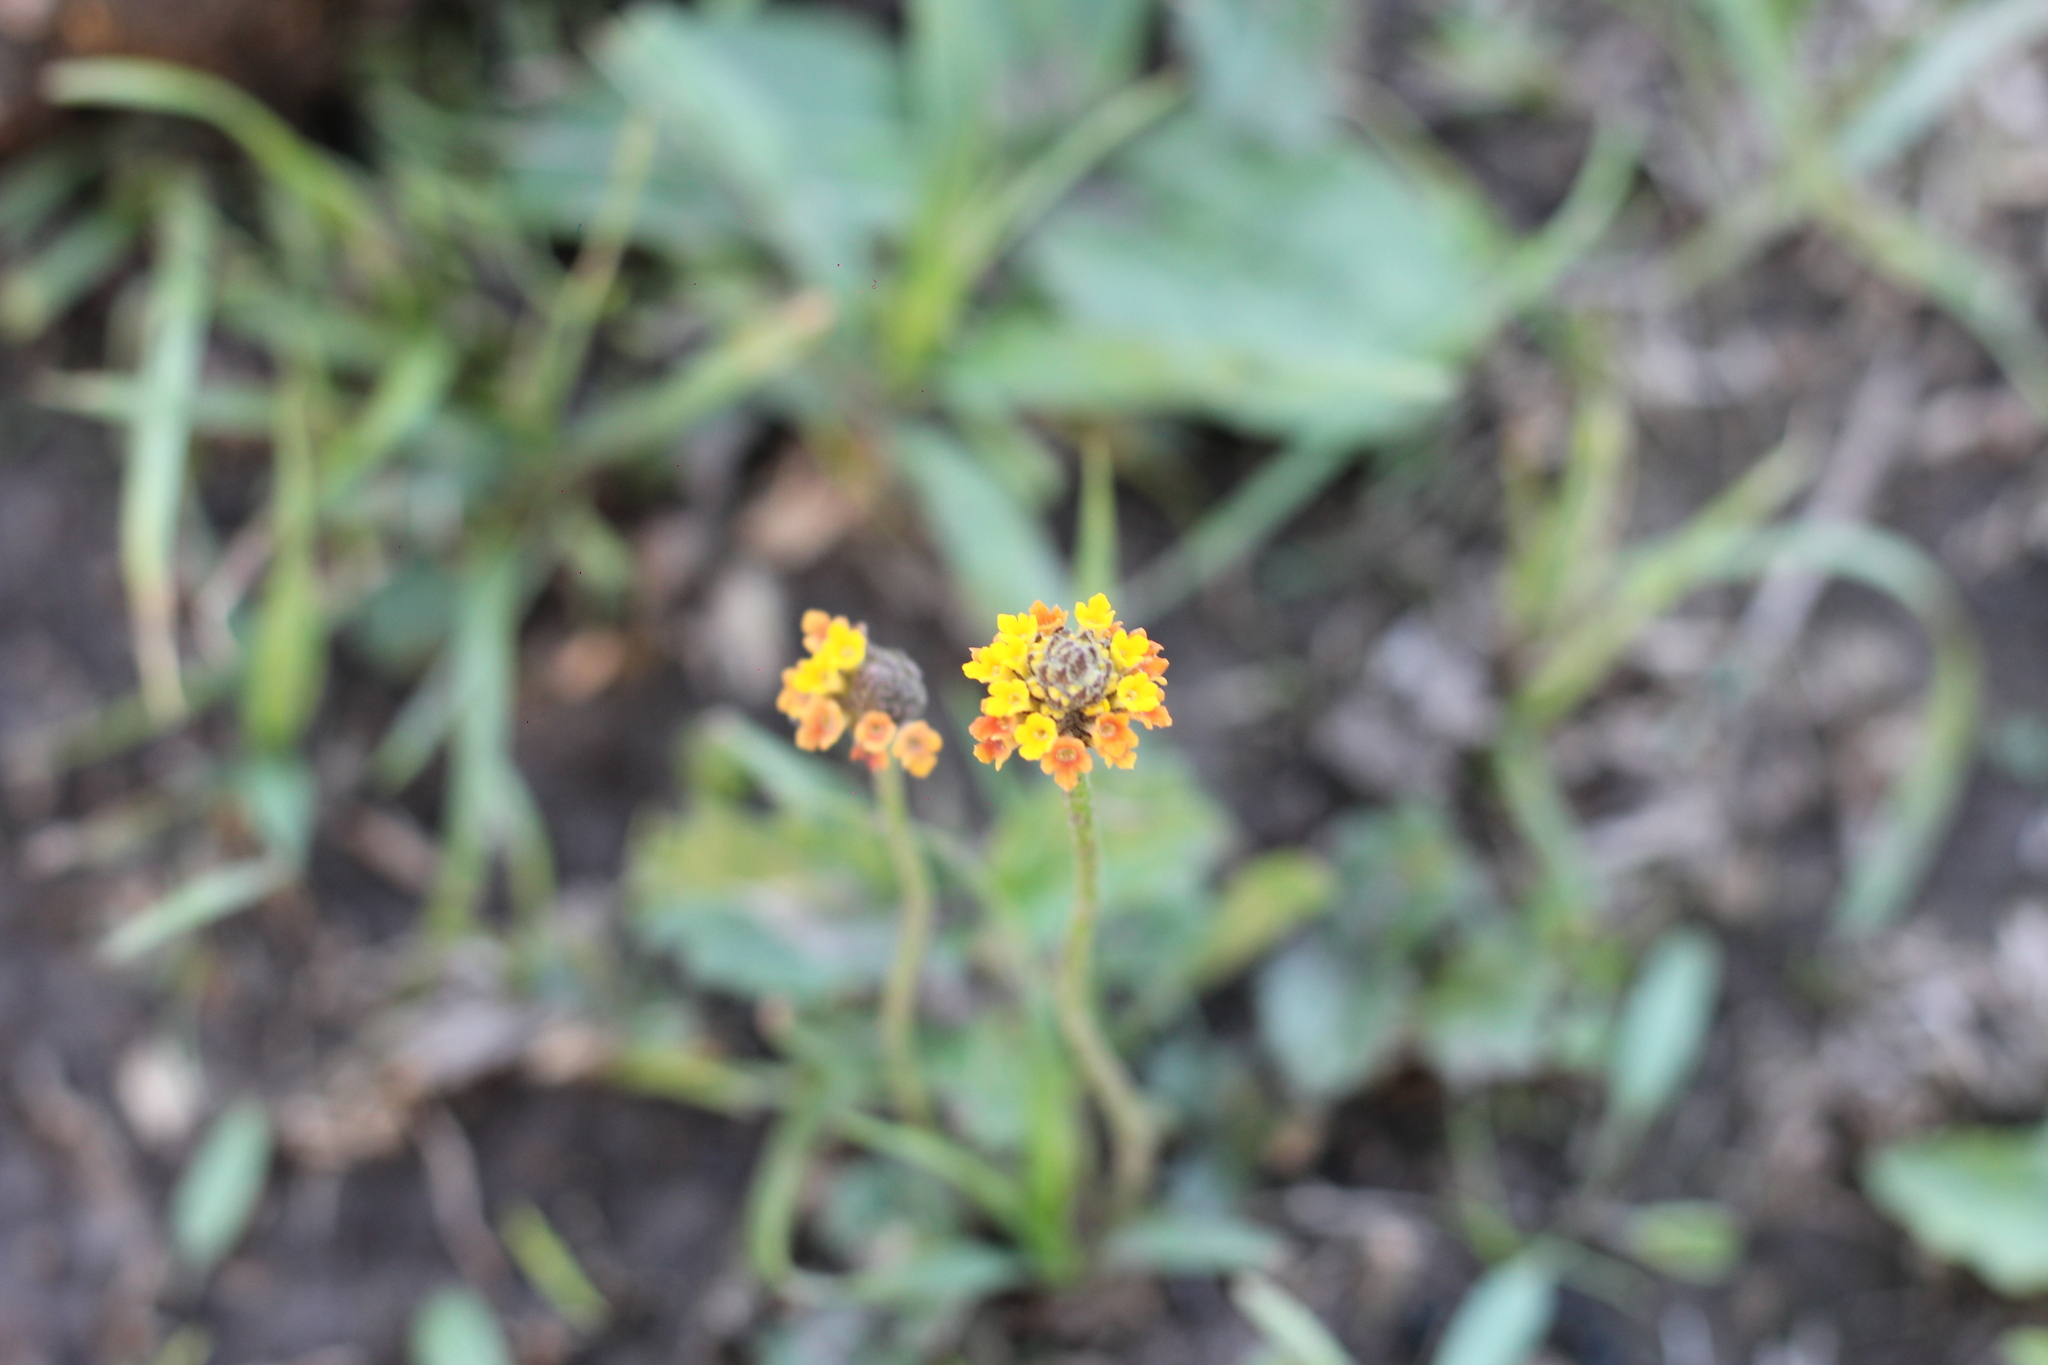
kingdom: Plantae
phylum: Tracheophyta
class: Magnoliopsida
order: Lamiales
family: Verbenaceae
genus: Lippia
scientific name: Lippia coarctata
